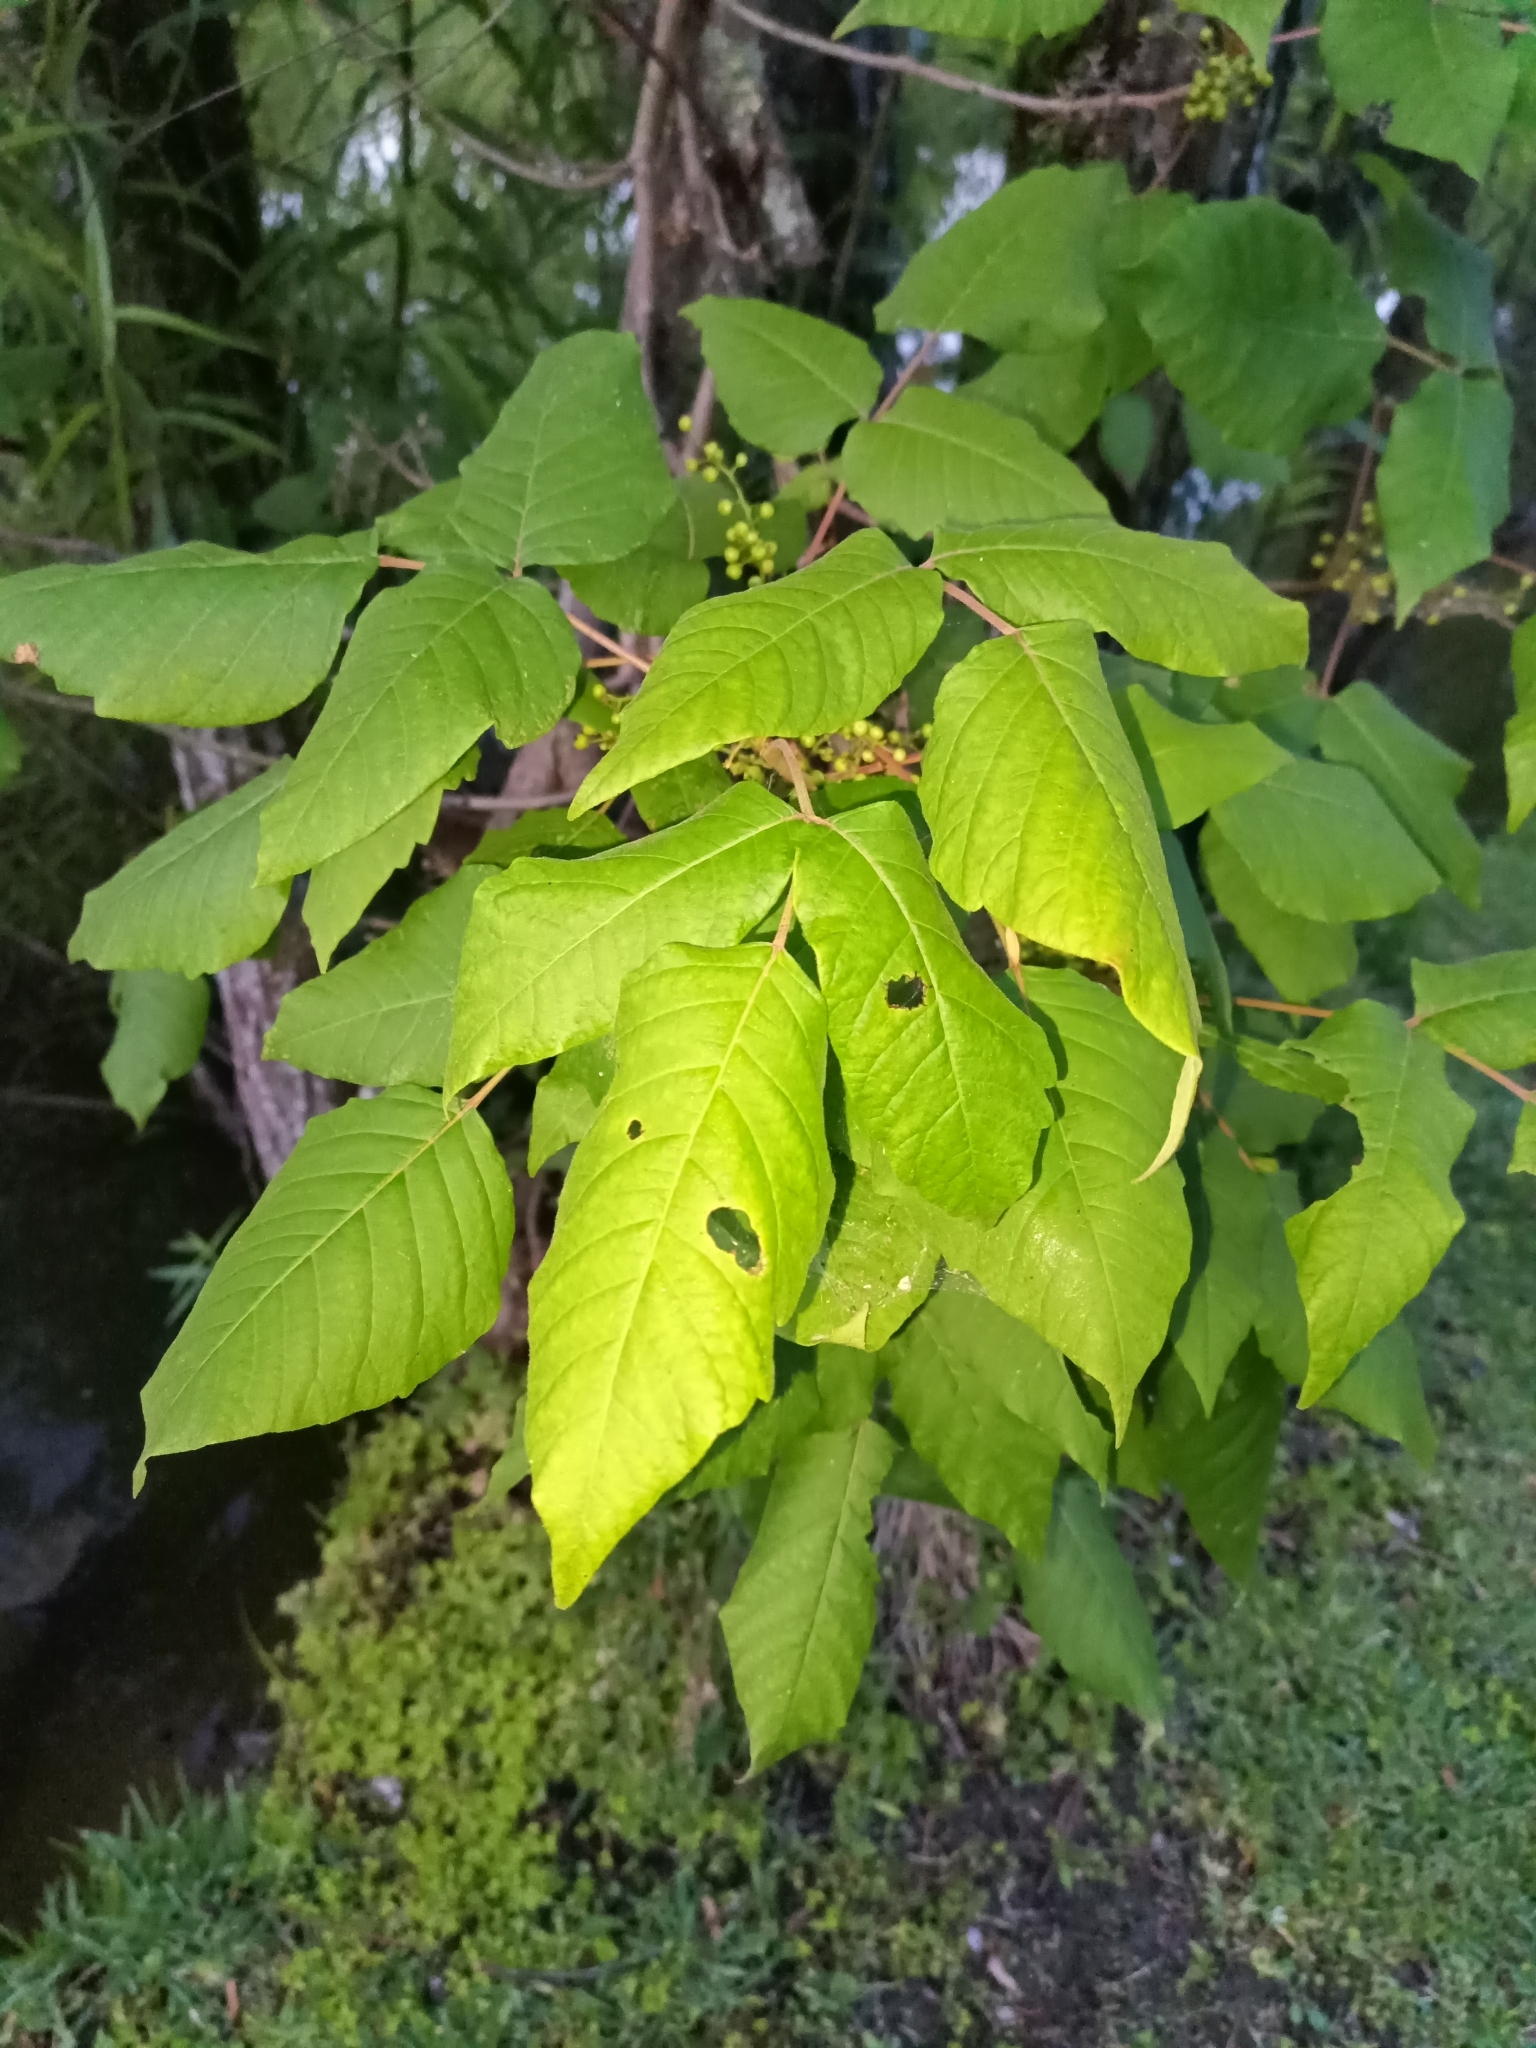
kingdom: Plantae
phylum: Tracheophyta
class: Magnoliopsida
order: Sapindales
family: Anacardiaceae
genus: Toxicodendron
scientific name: Toxicodendron radicans
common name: Poison ivy
